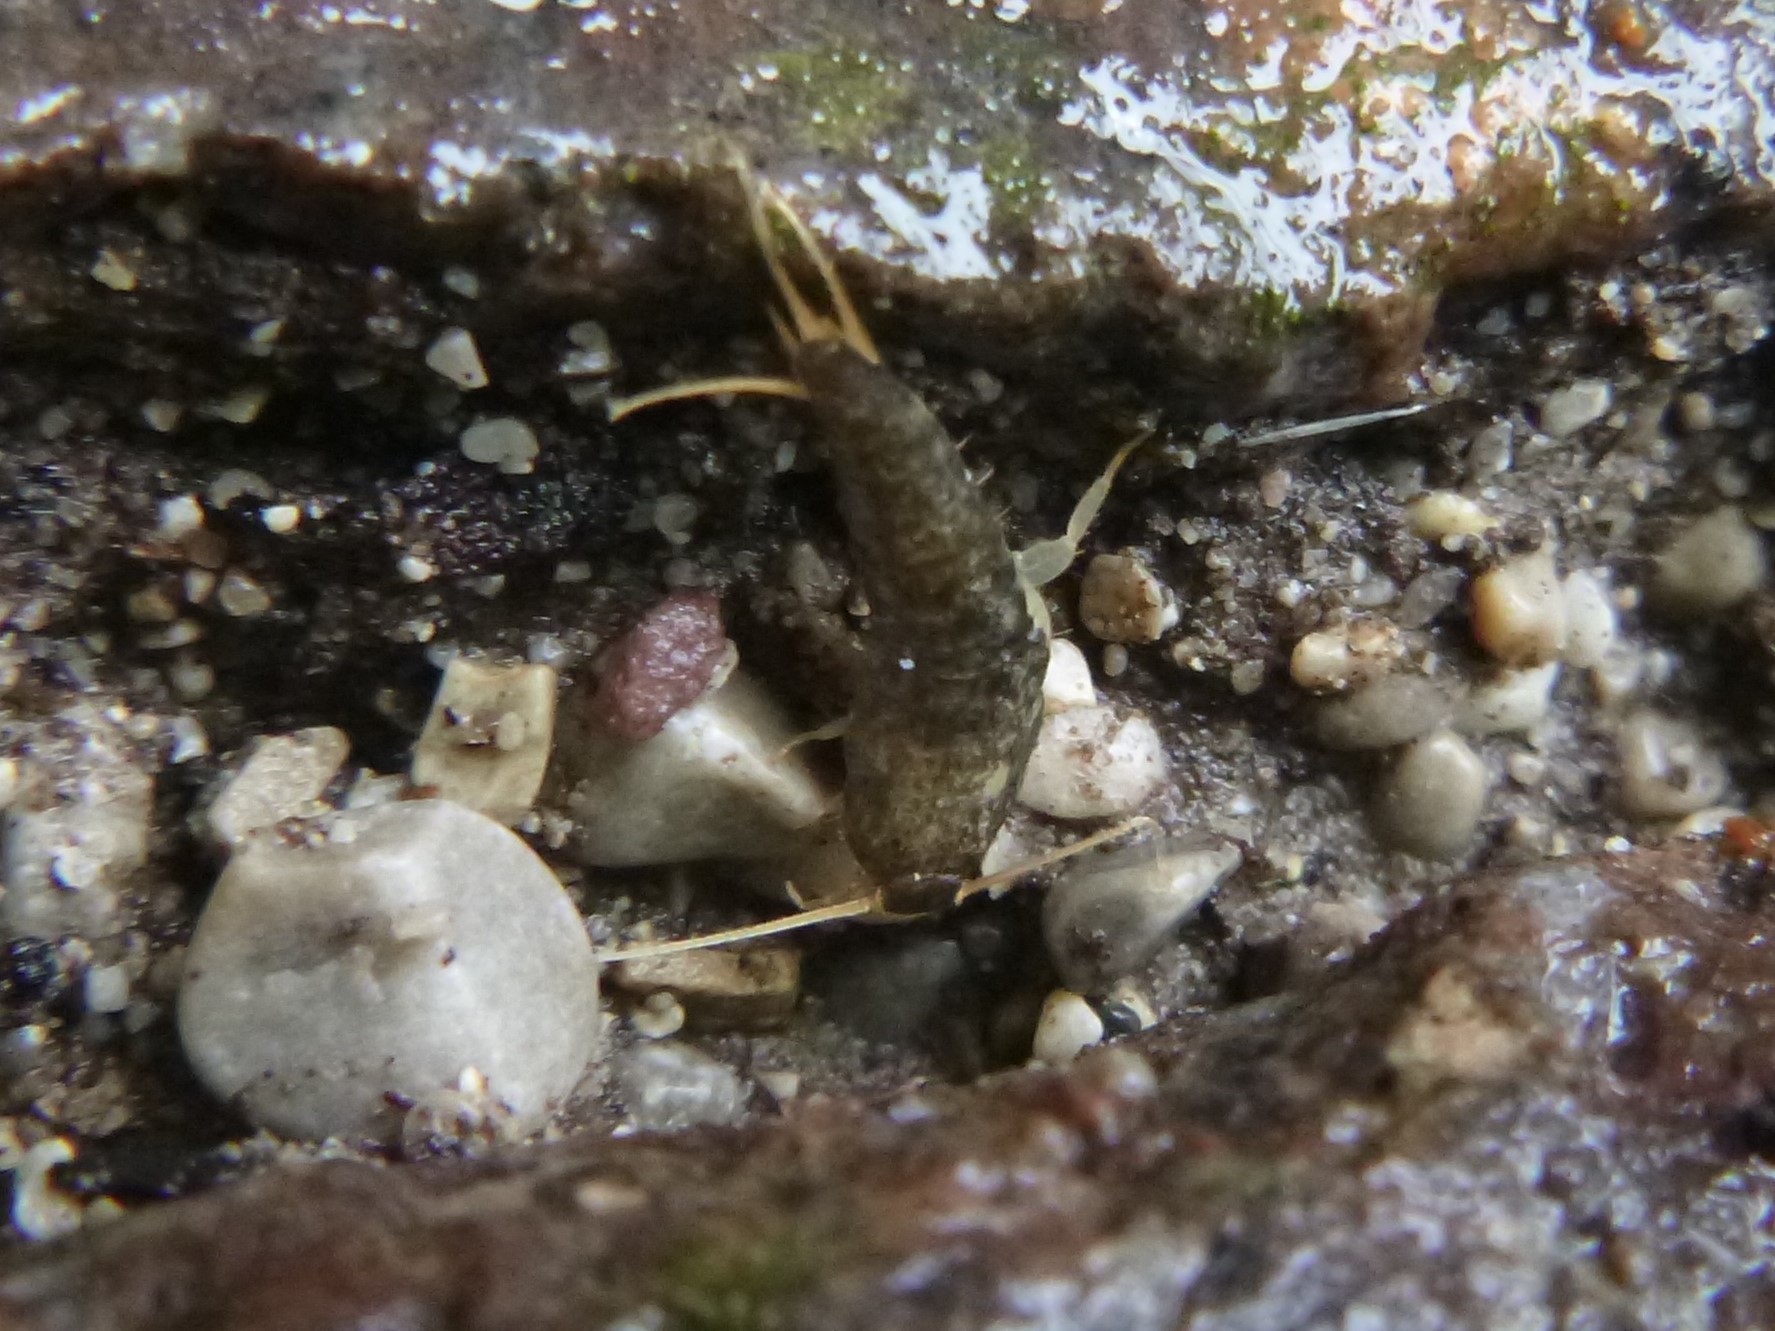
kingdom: Animalia
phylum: Arthropoda
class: Insecta
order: Zygentoma
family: Lepismatidae
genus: Lepisma
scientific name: Lepisma saccharinum
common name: Silverfish
